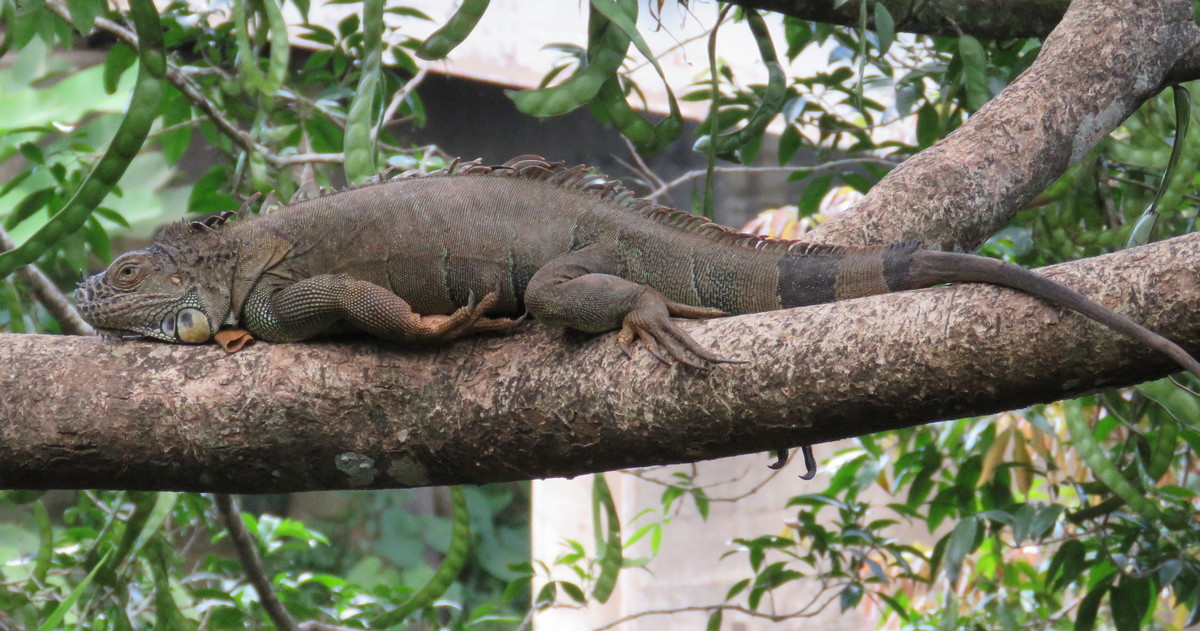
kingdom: Animalia
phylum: Chordata
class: Squamata
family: Iguanidae
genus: Iguana
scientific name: Iguana iguana
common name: Green iguana
